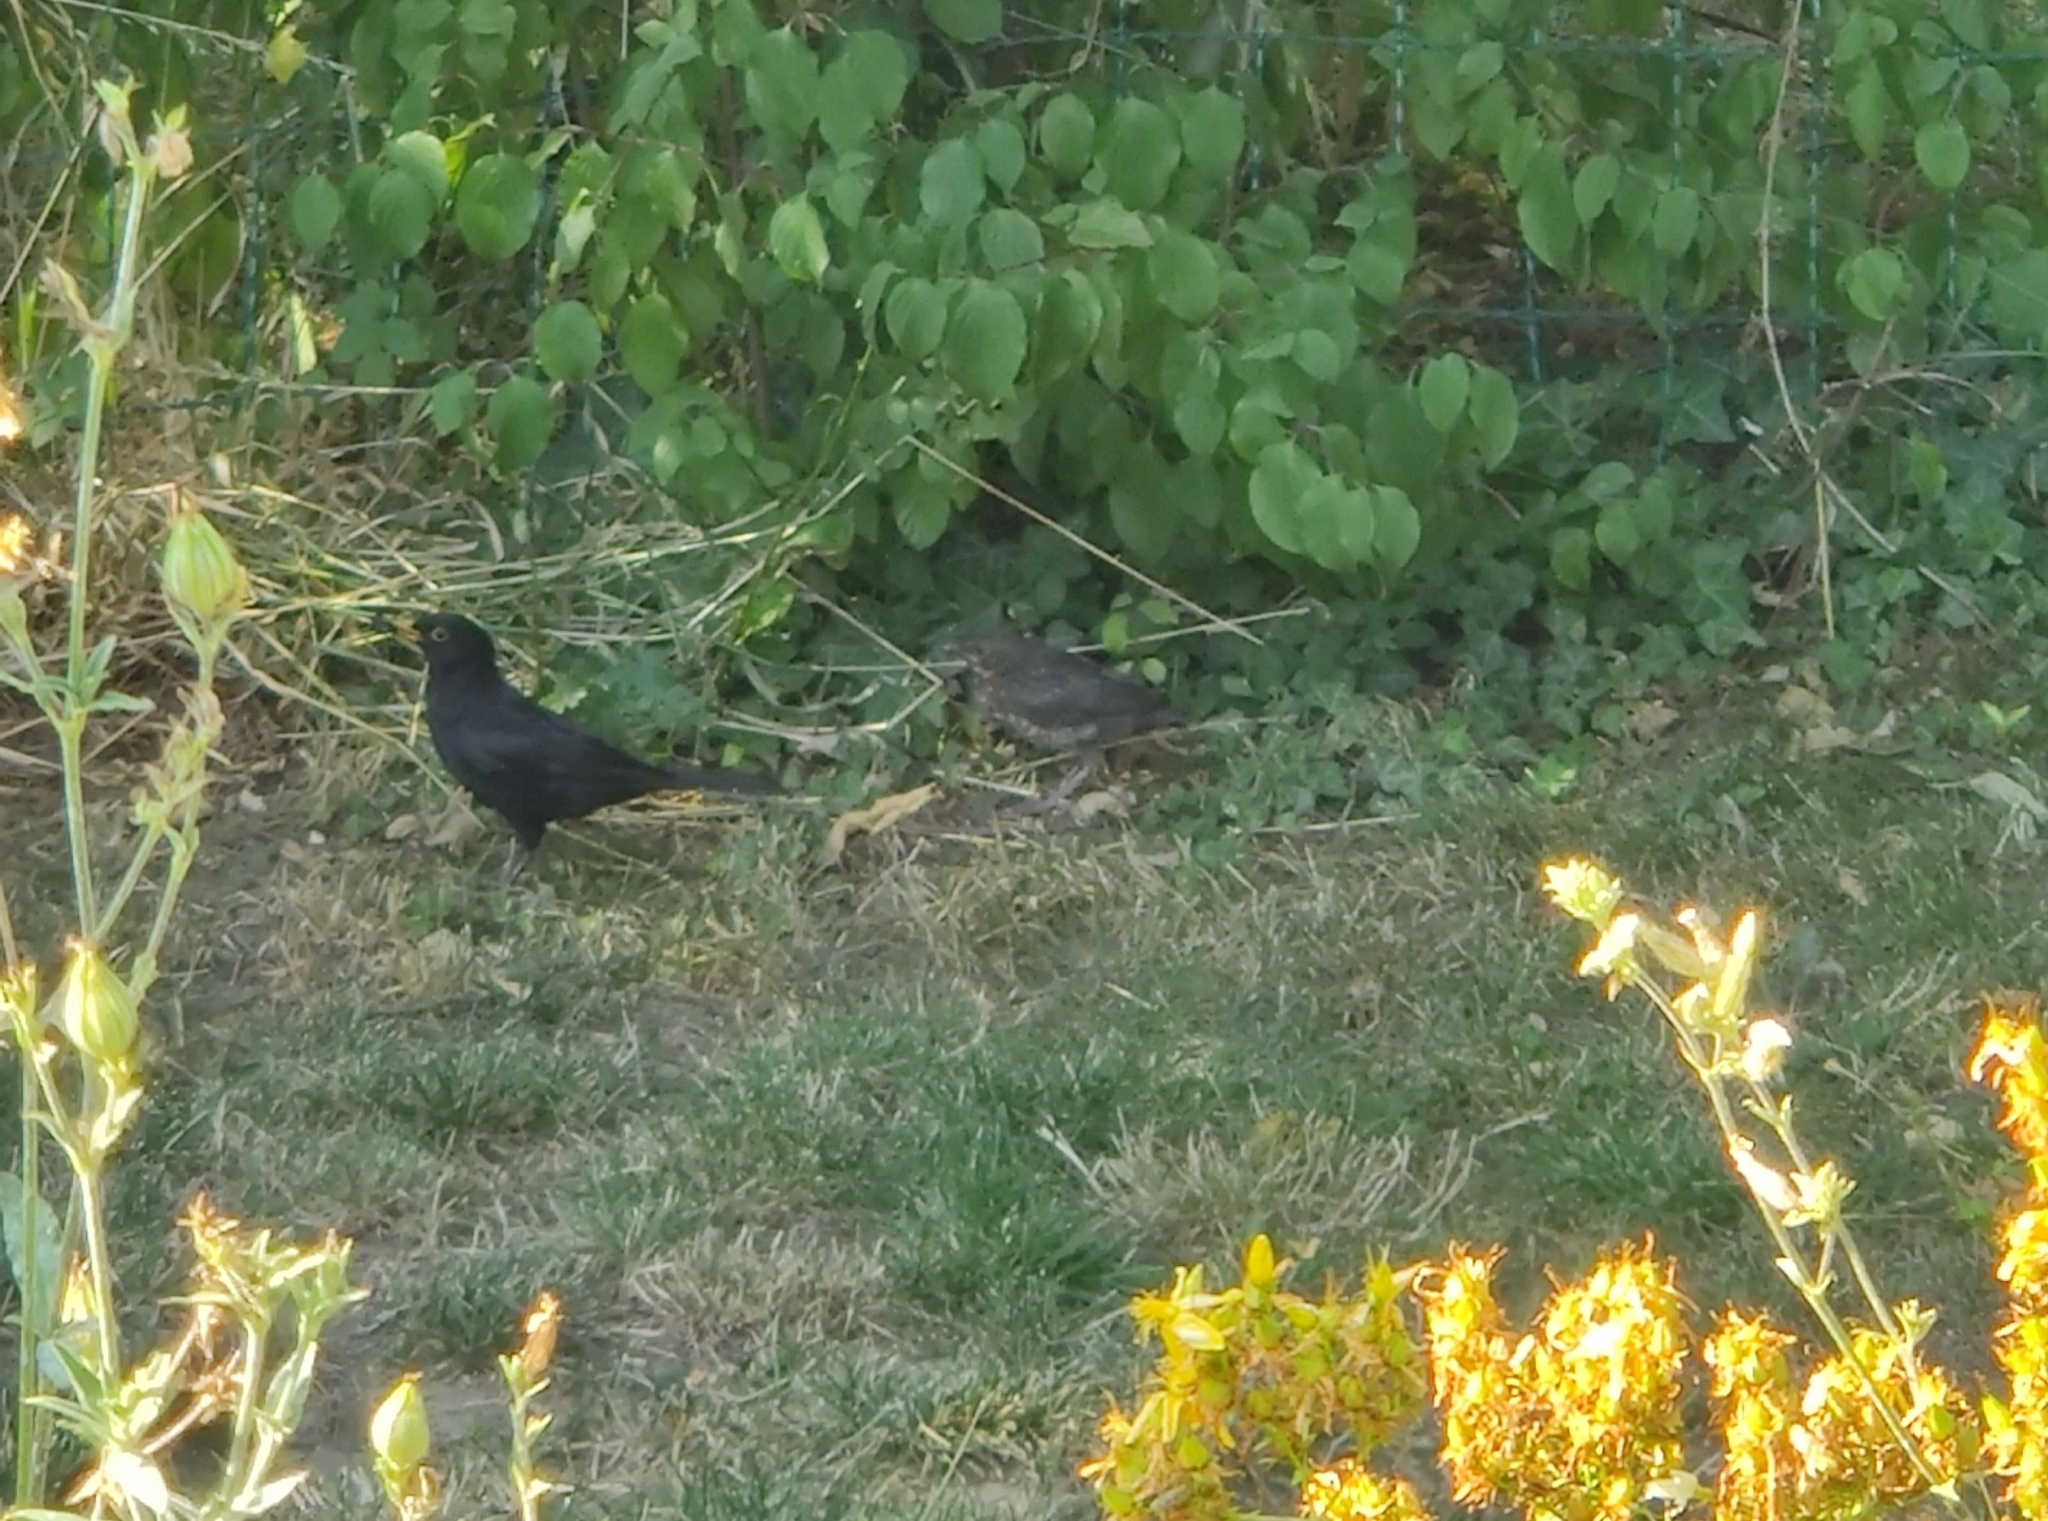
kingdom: Animalia
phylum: Chordata
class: Aves
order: Passeriformes
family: Turdidae
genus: Turdus
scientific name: Turdus merula
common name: Common blackbird
